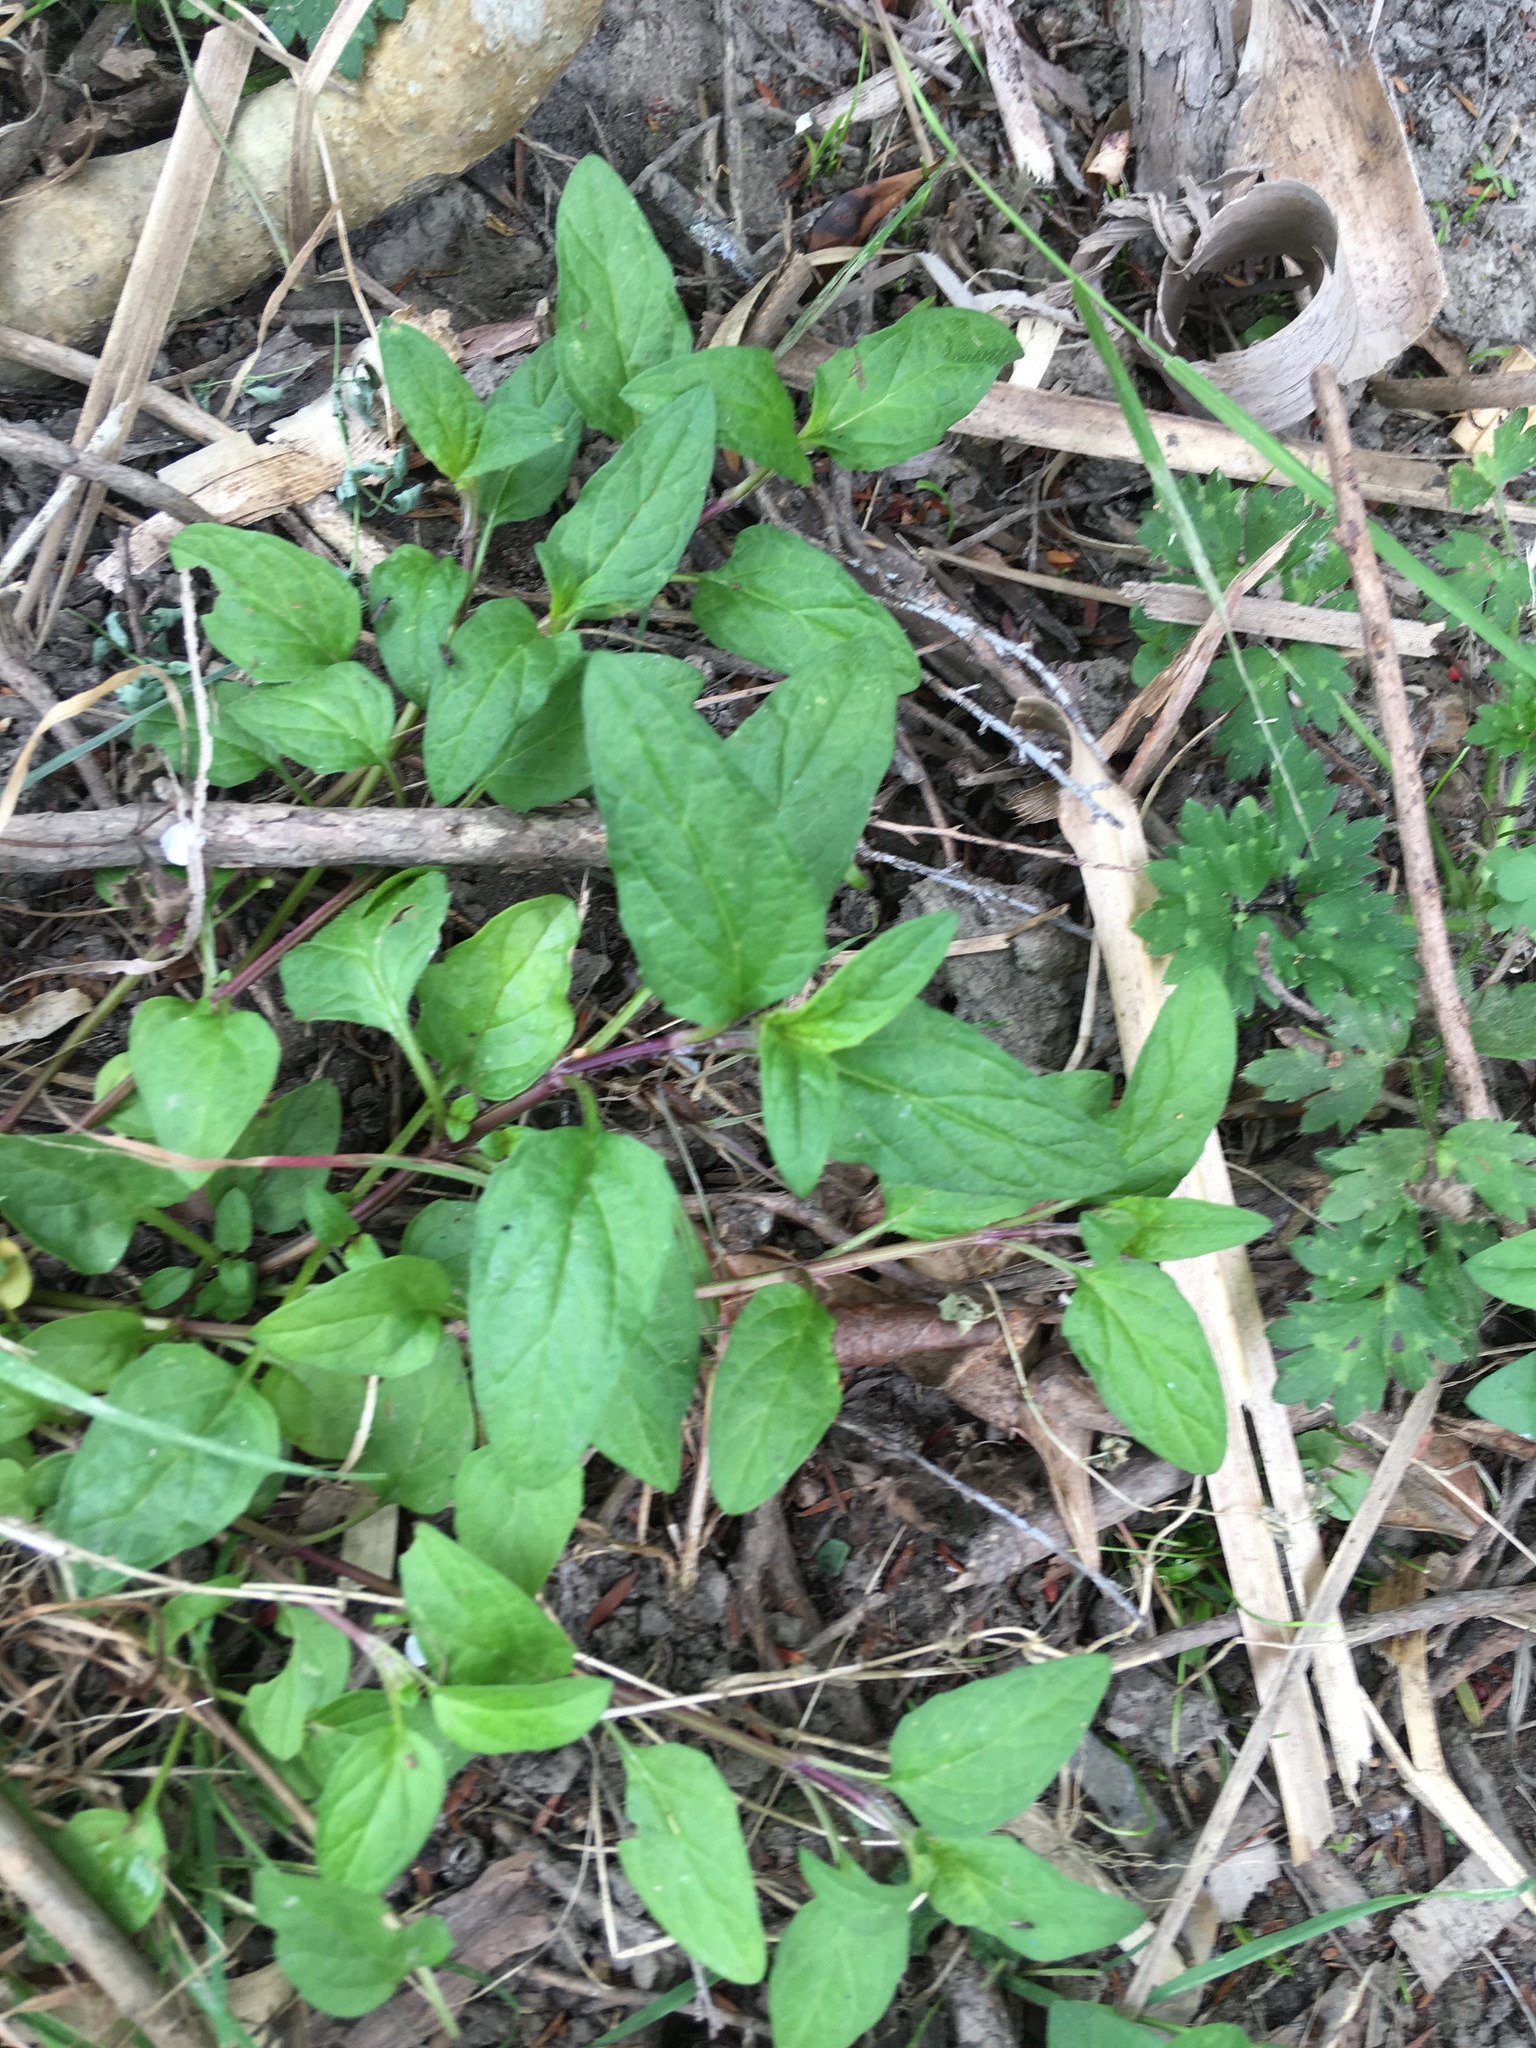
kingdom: Plantae
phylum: Tracheophyta
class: Magnoliopsida
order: Lamiales
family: Lamiaceae
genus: Prunella
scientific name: Prunella vulgaris
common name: Heal-all
